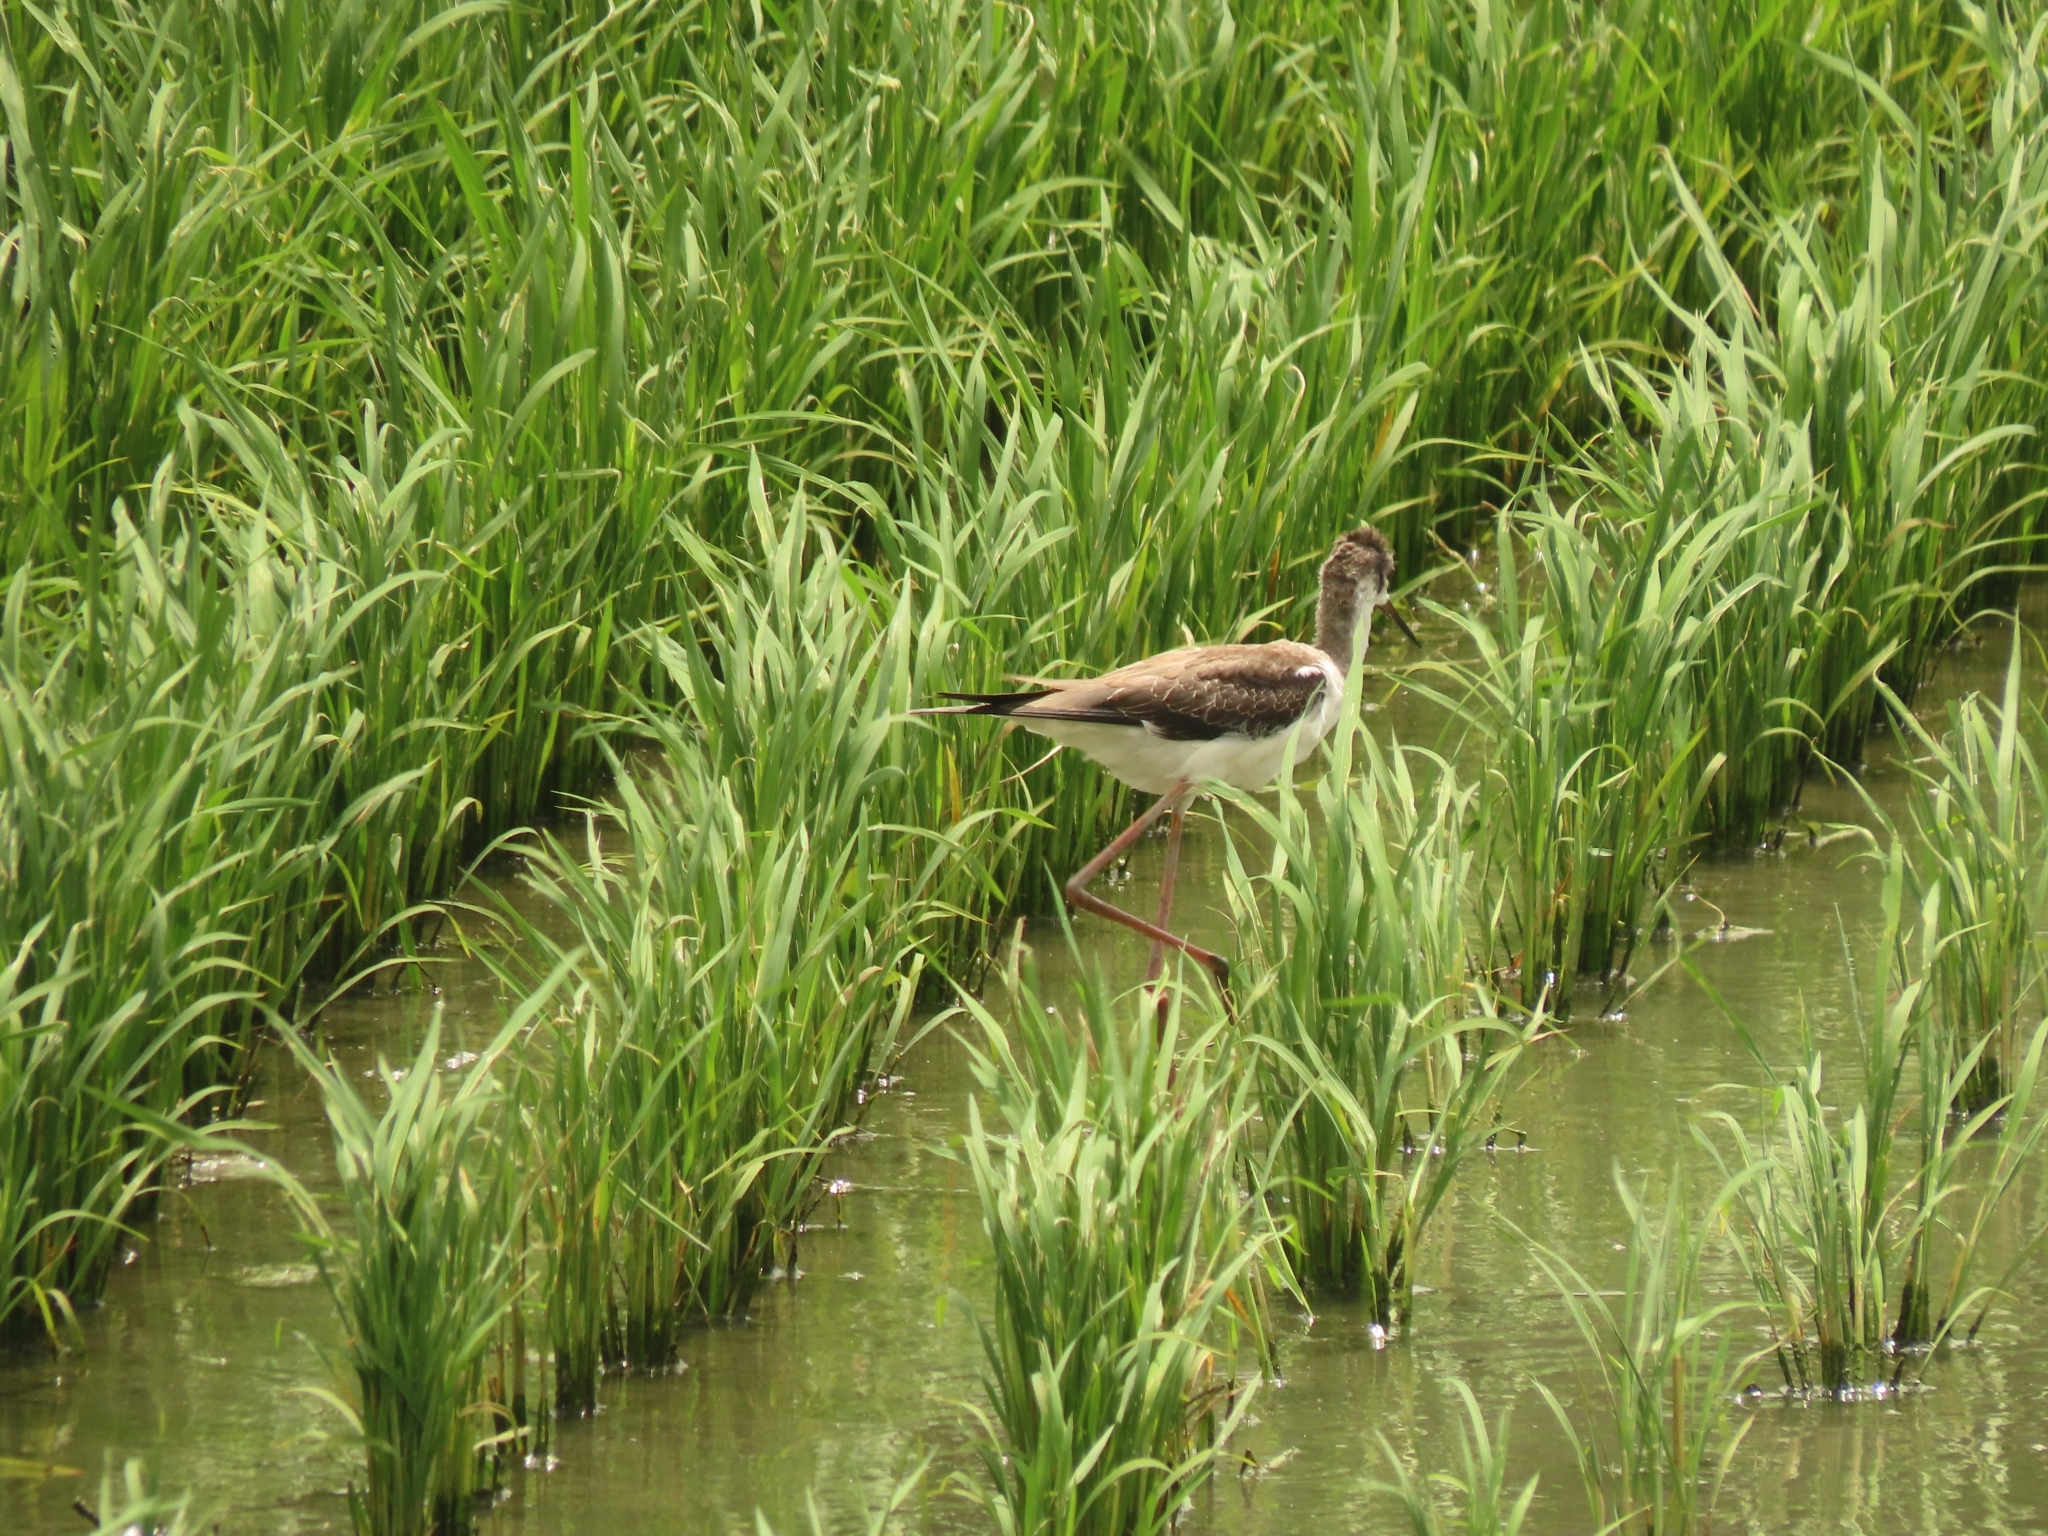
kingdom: Animalia
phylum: Chordata
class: Aves
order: Charadriiformes
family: Recurvirostridae
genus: Himantopus
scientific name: Himantopus himantopus
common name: Black-winged stilt
